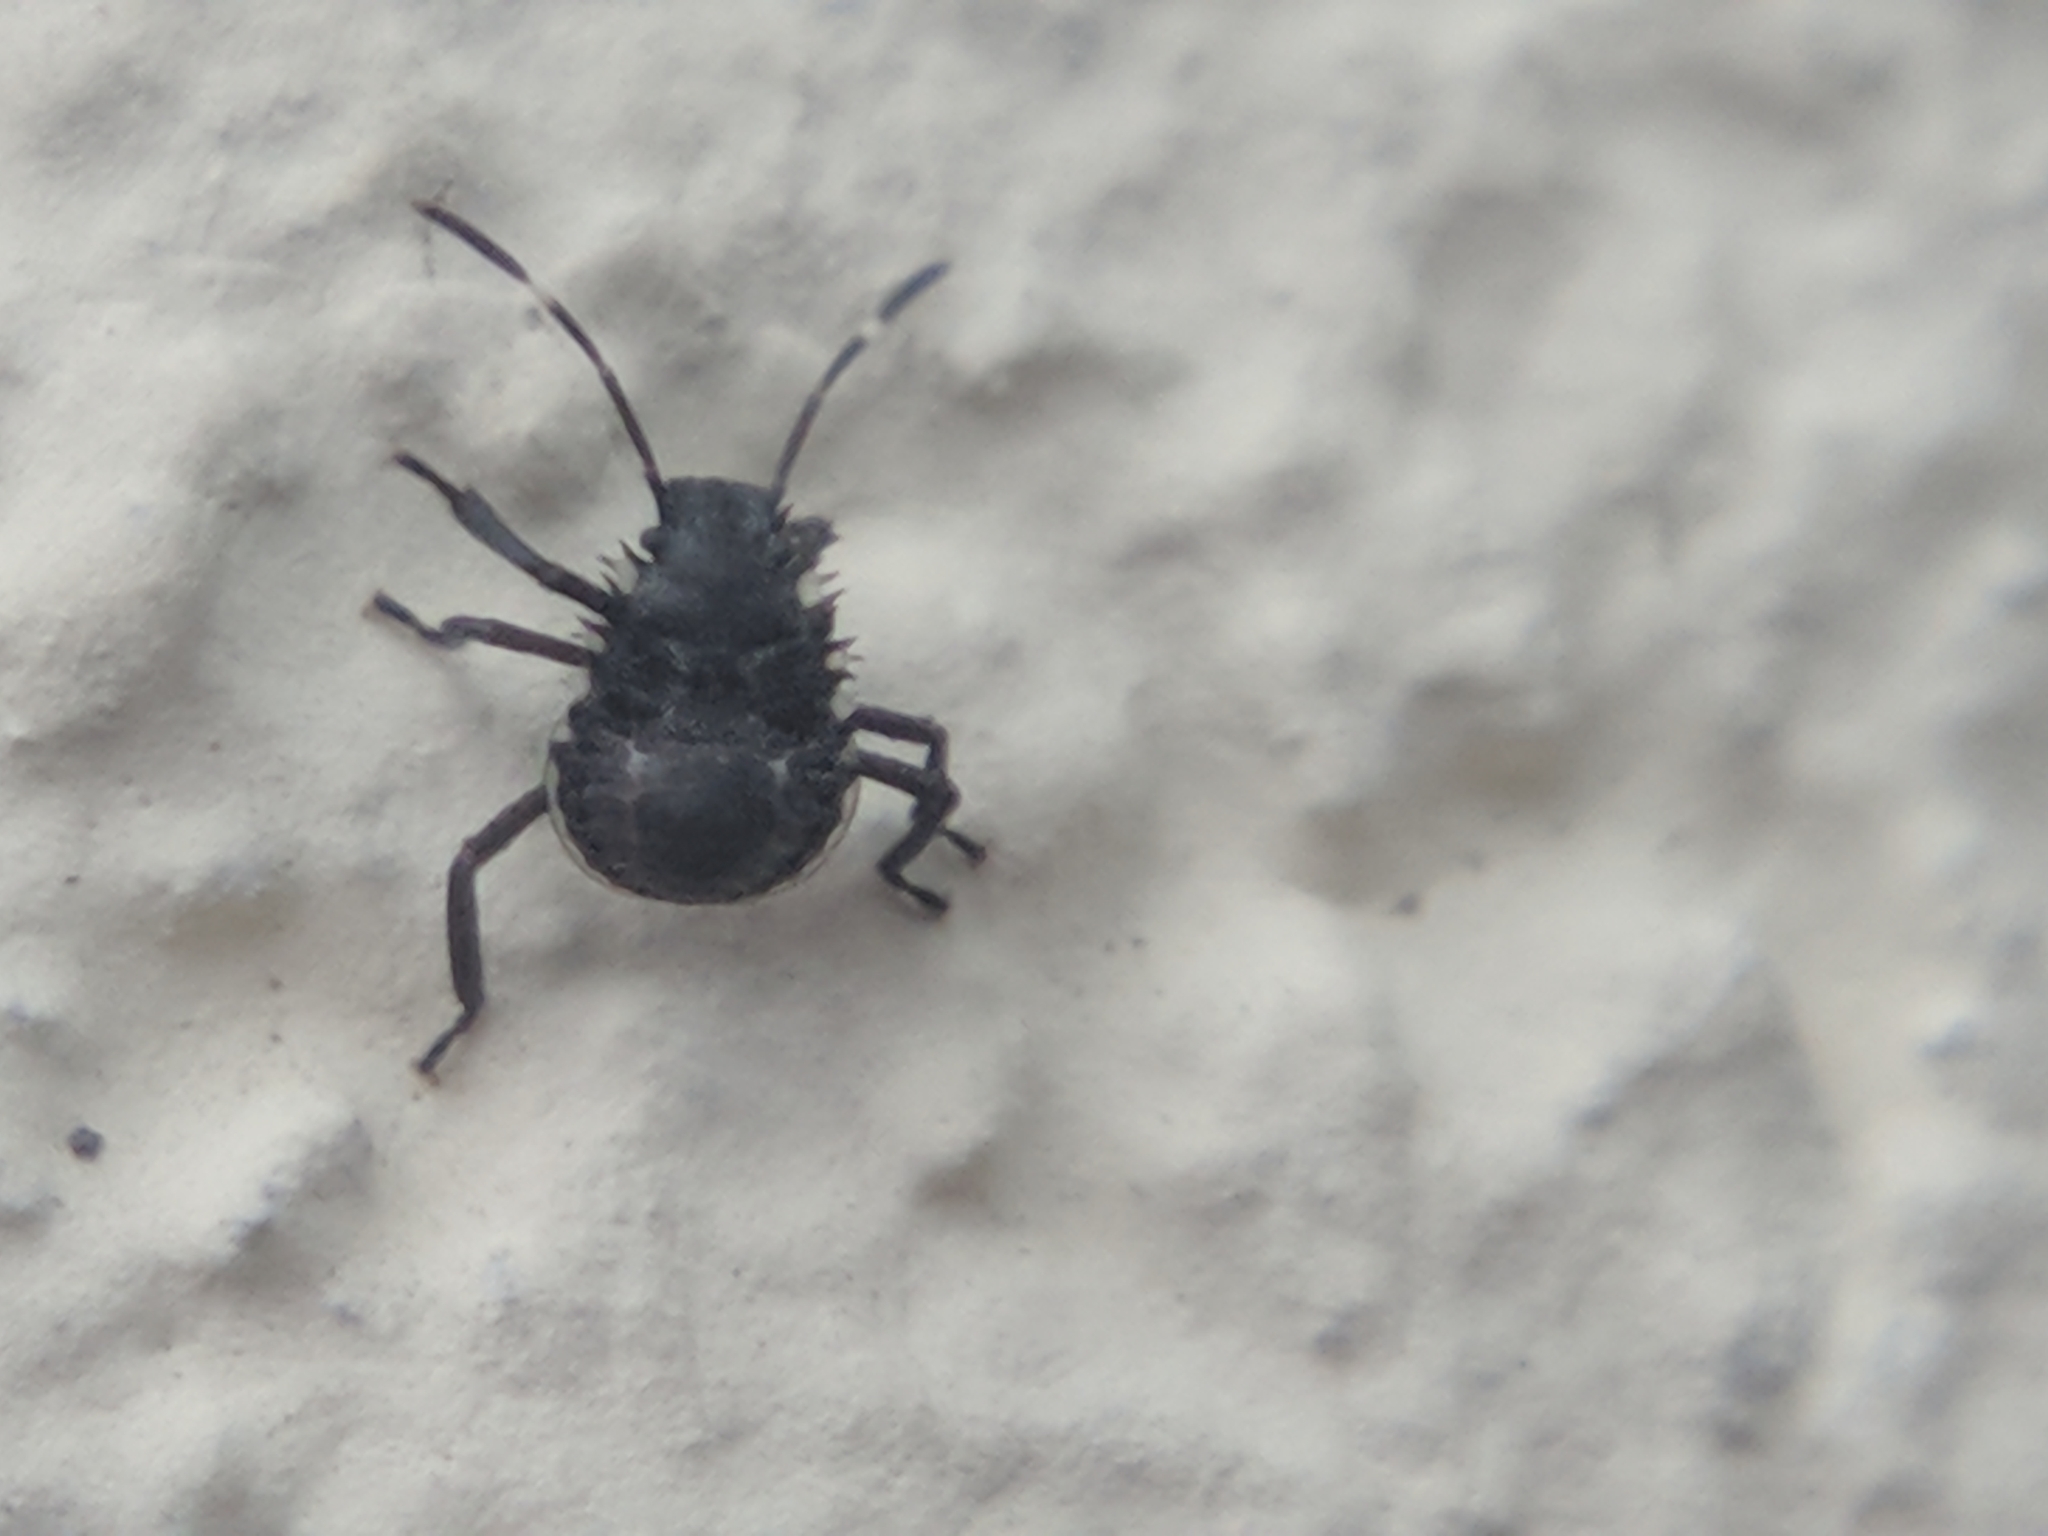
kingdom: Animalia
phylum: Arthropoda
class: Insecta
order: Hemiptera
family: Pentatomidae
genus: Halyomorpha
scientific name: Halyomorpha halys
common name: Brown marmorated stink bug
